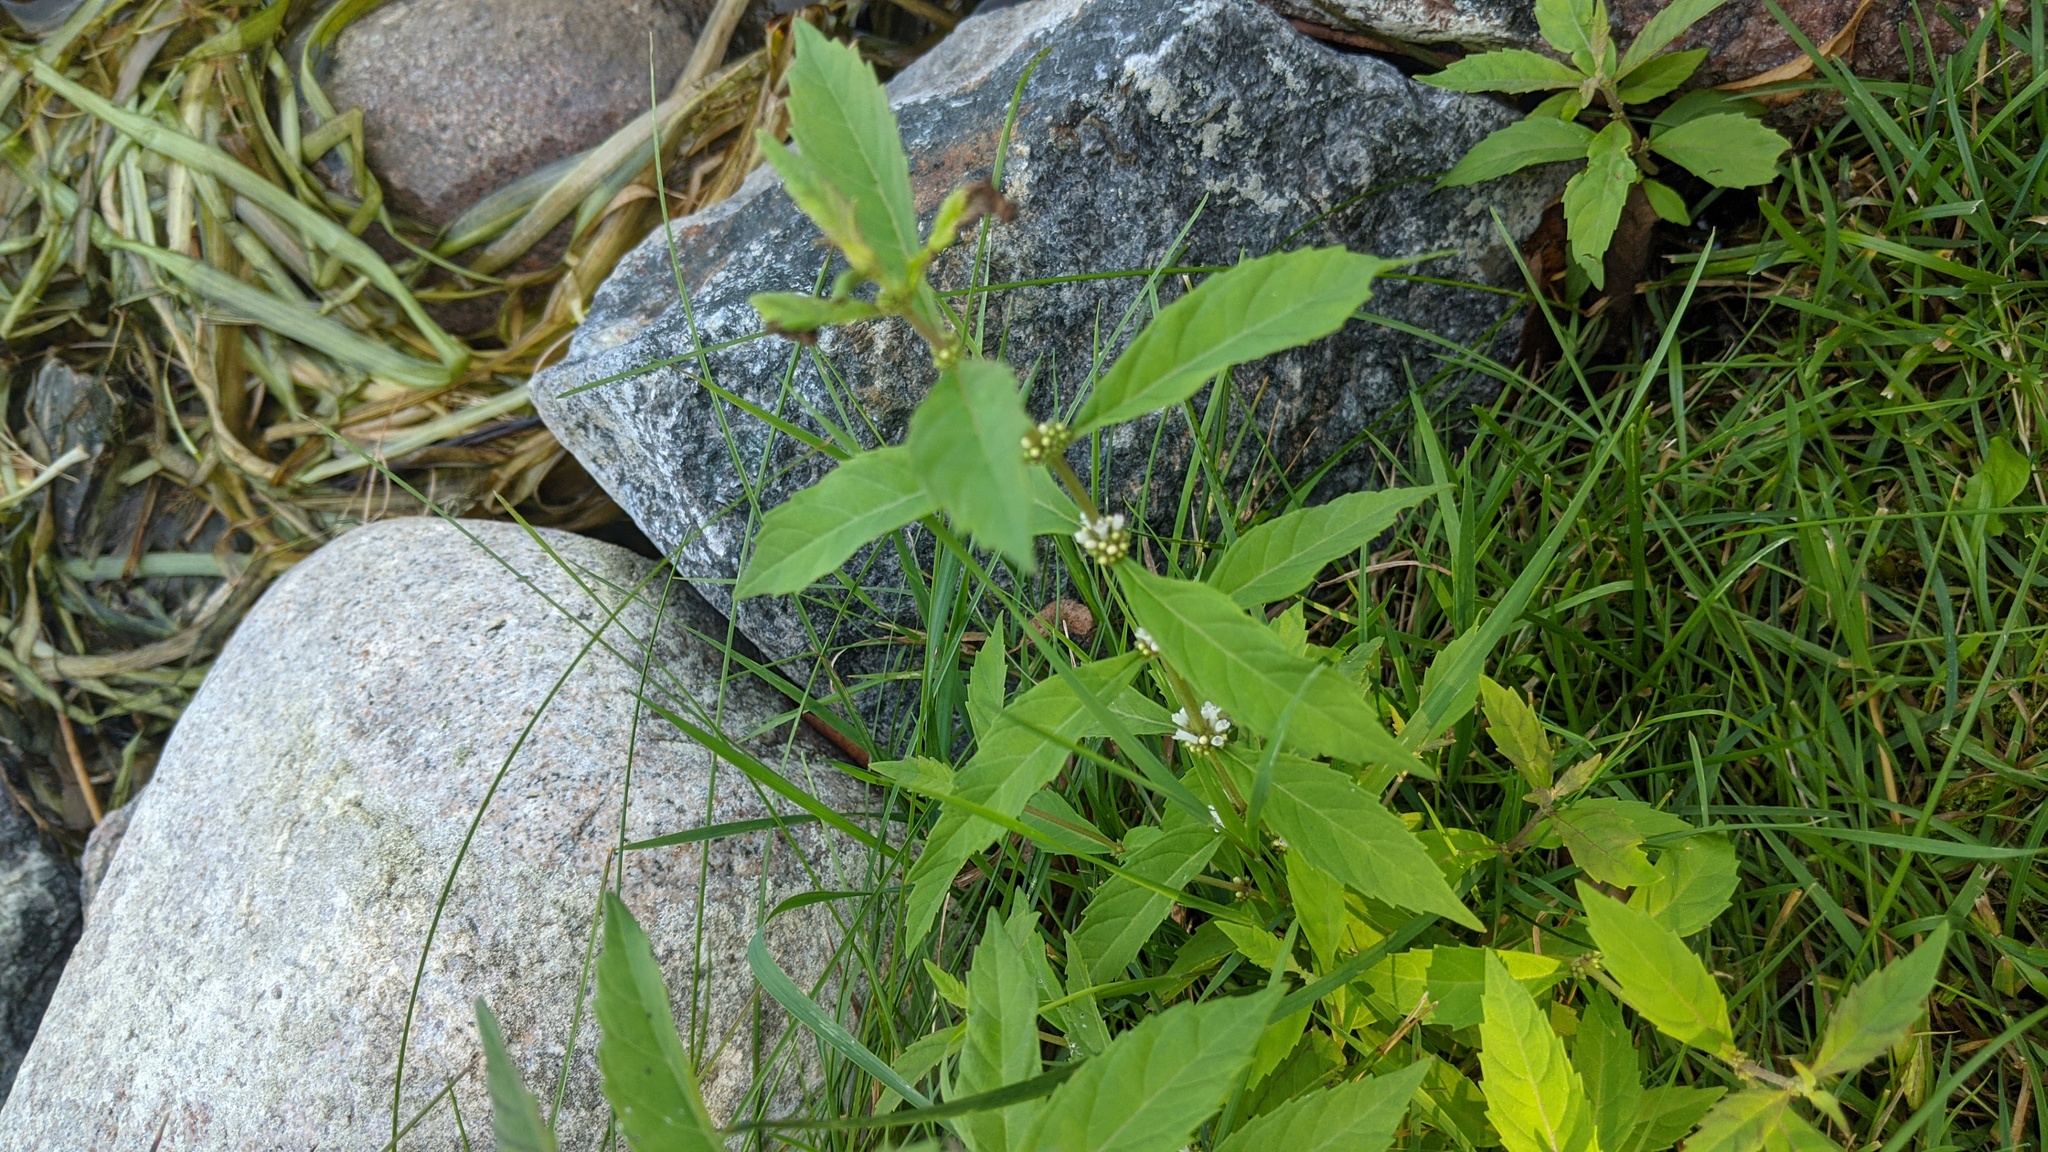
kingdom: Plantae
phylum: Tracheophyta
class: Magnoliopsida
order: Lamiales
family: Lamiaceae
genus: Lycopus
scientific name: Lycopus uniflorus
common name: Northern bugleweed
